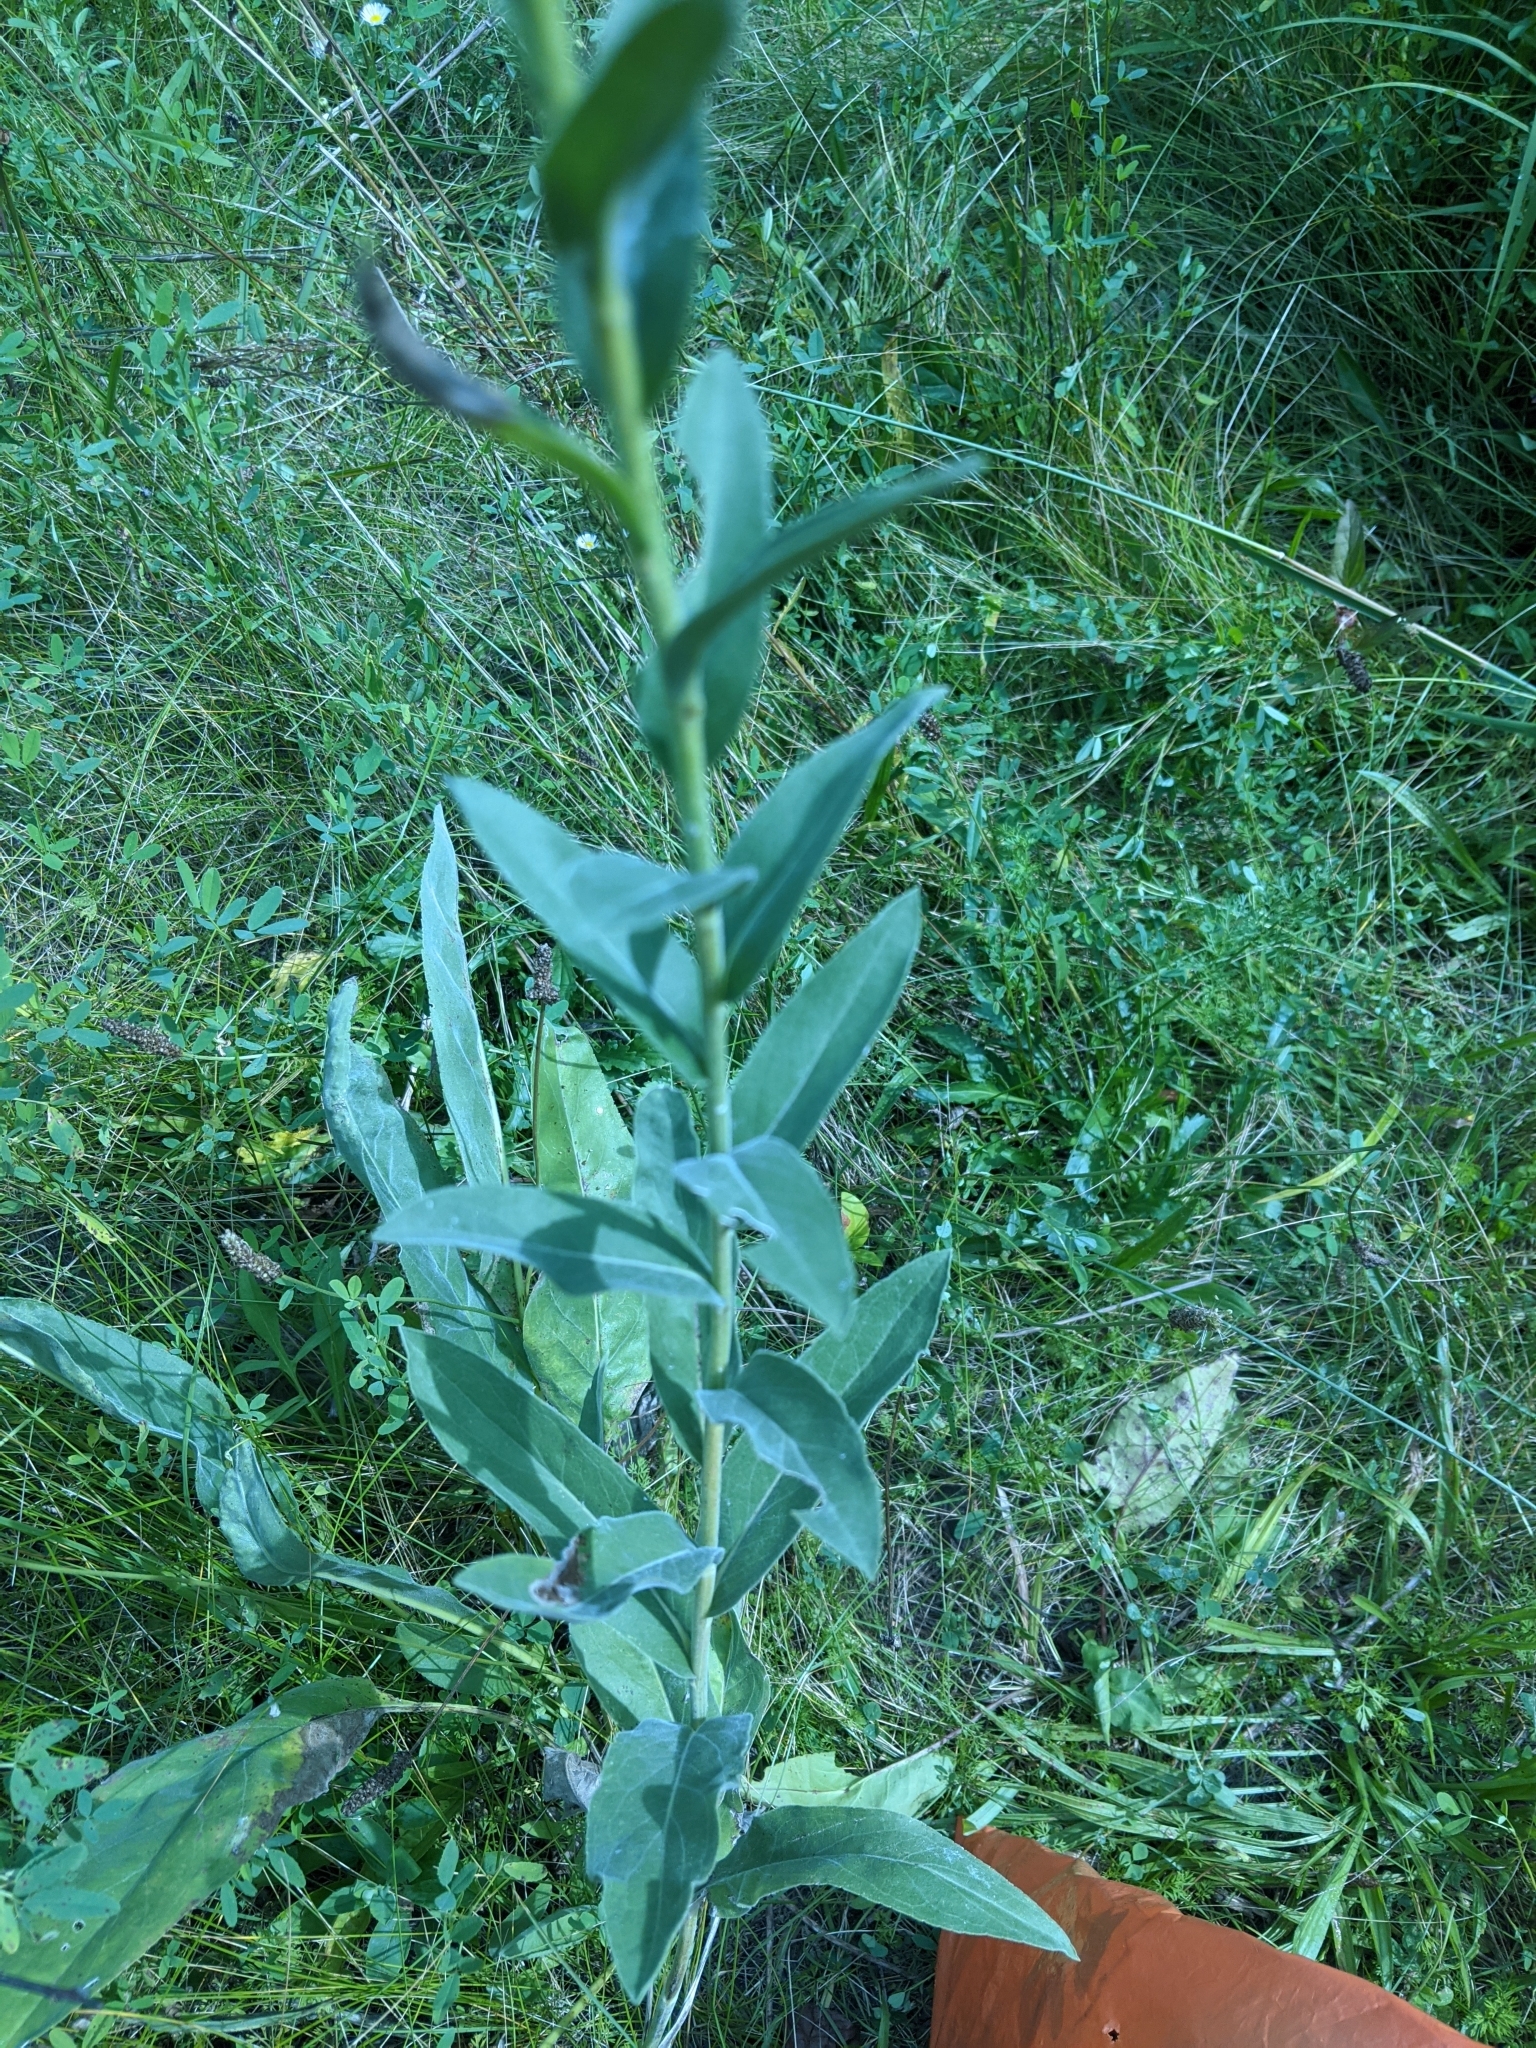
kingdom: Plantae
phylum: Tracheophyta
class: Magnoliopsida
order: Asterales
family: Asteraceae
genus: Solidago
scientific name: Solidago rigida
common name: Rigid goldenrod
